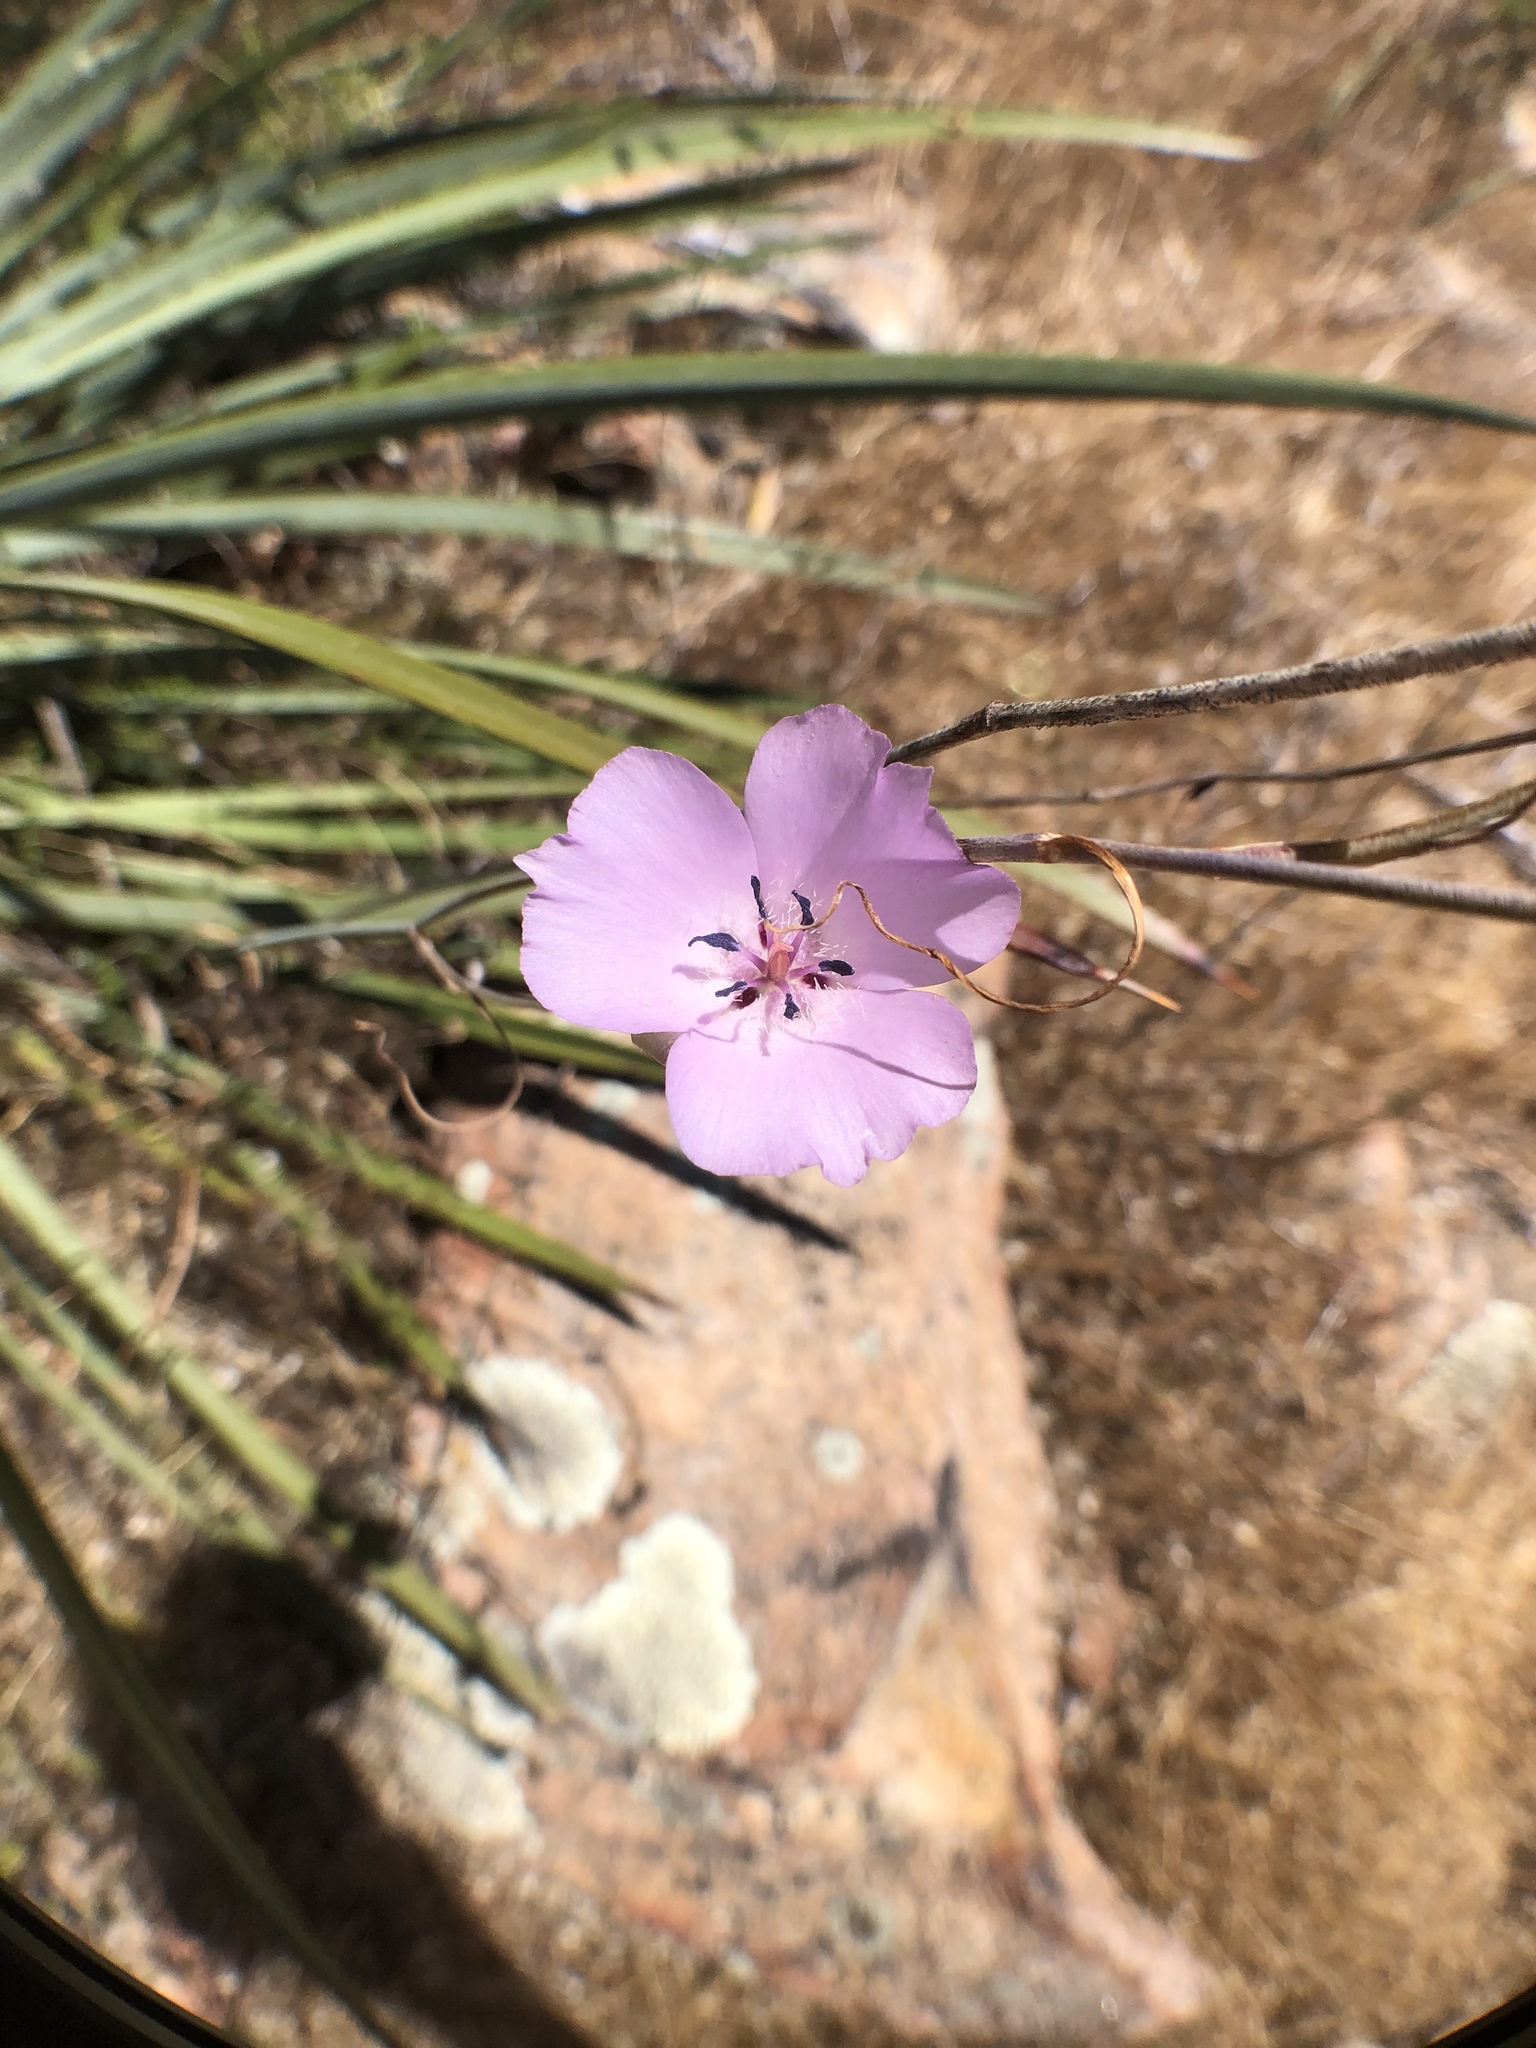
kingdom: Plantae
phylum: Tracheophyta
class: Liliopsida
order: Liliales
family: Liliaceae
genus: Calochortus
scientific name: Calochortus splendens
